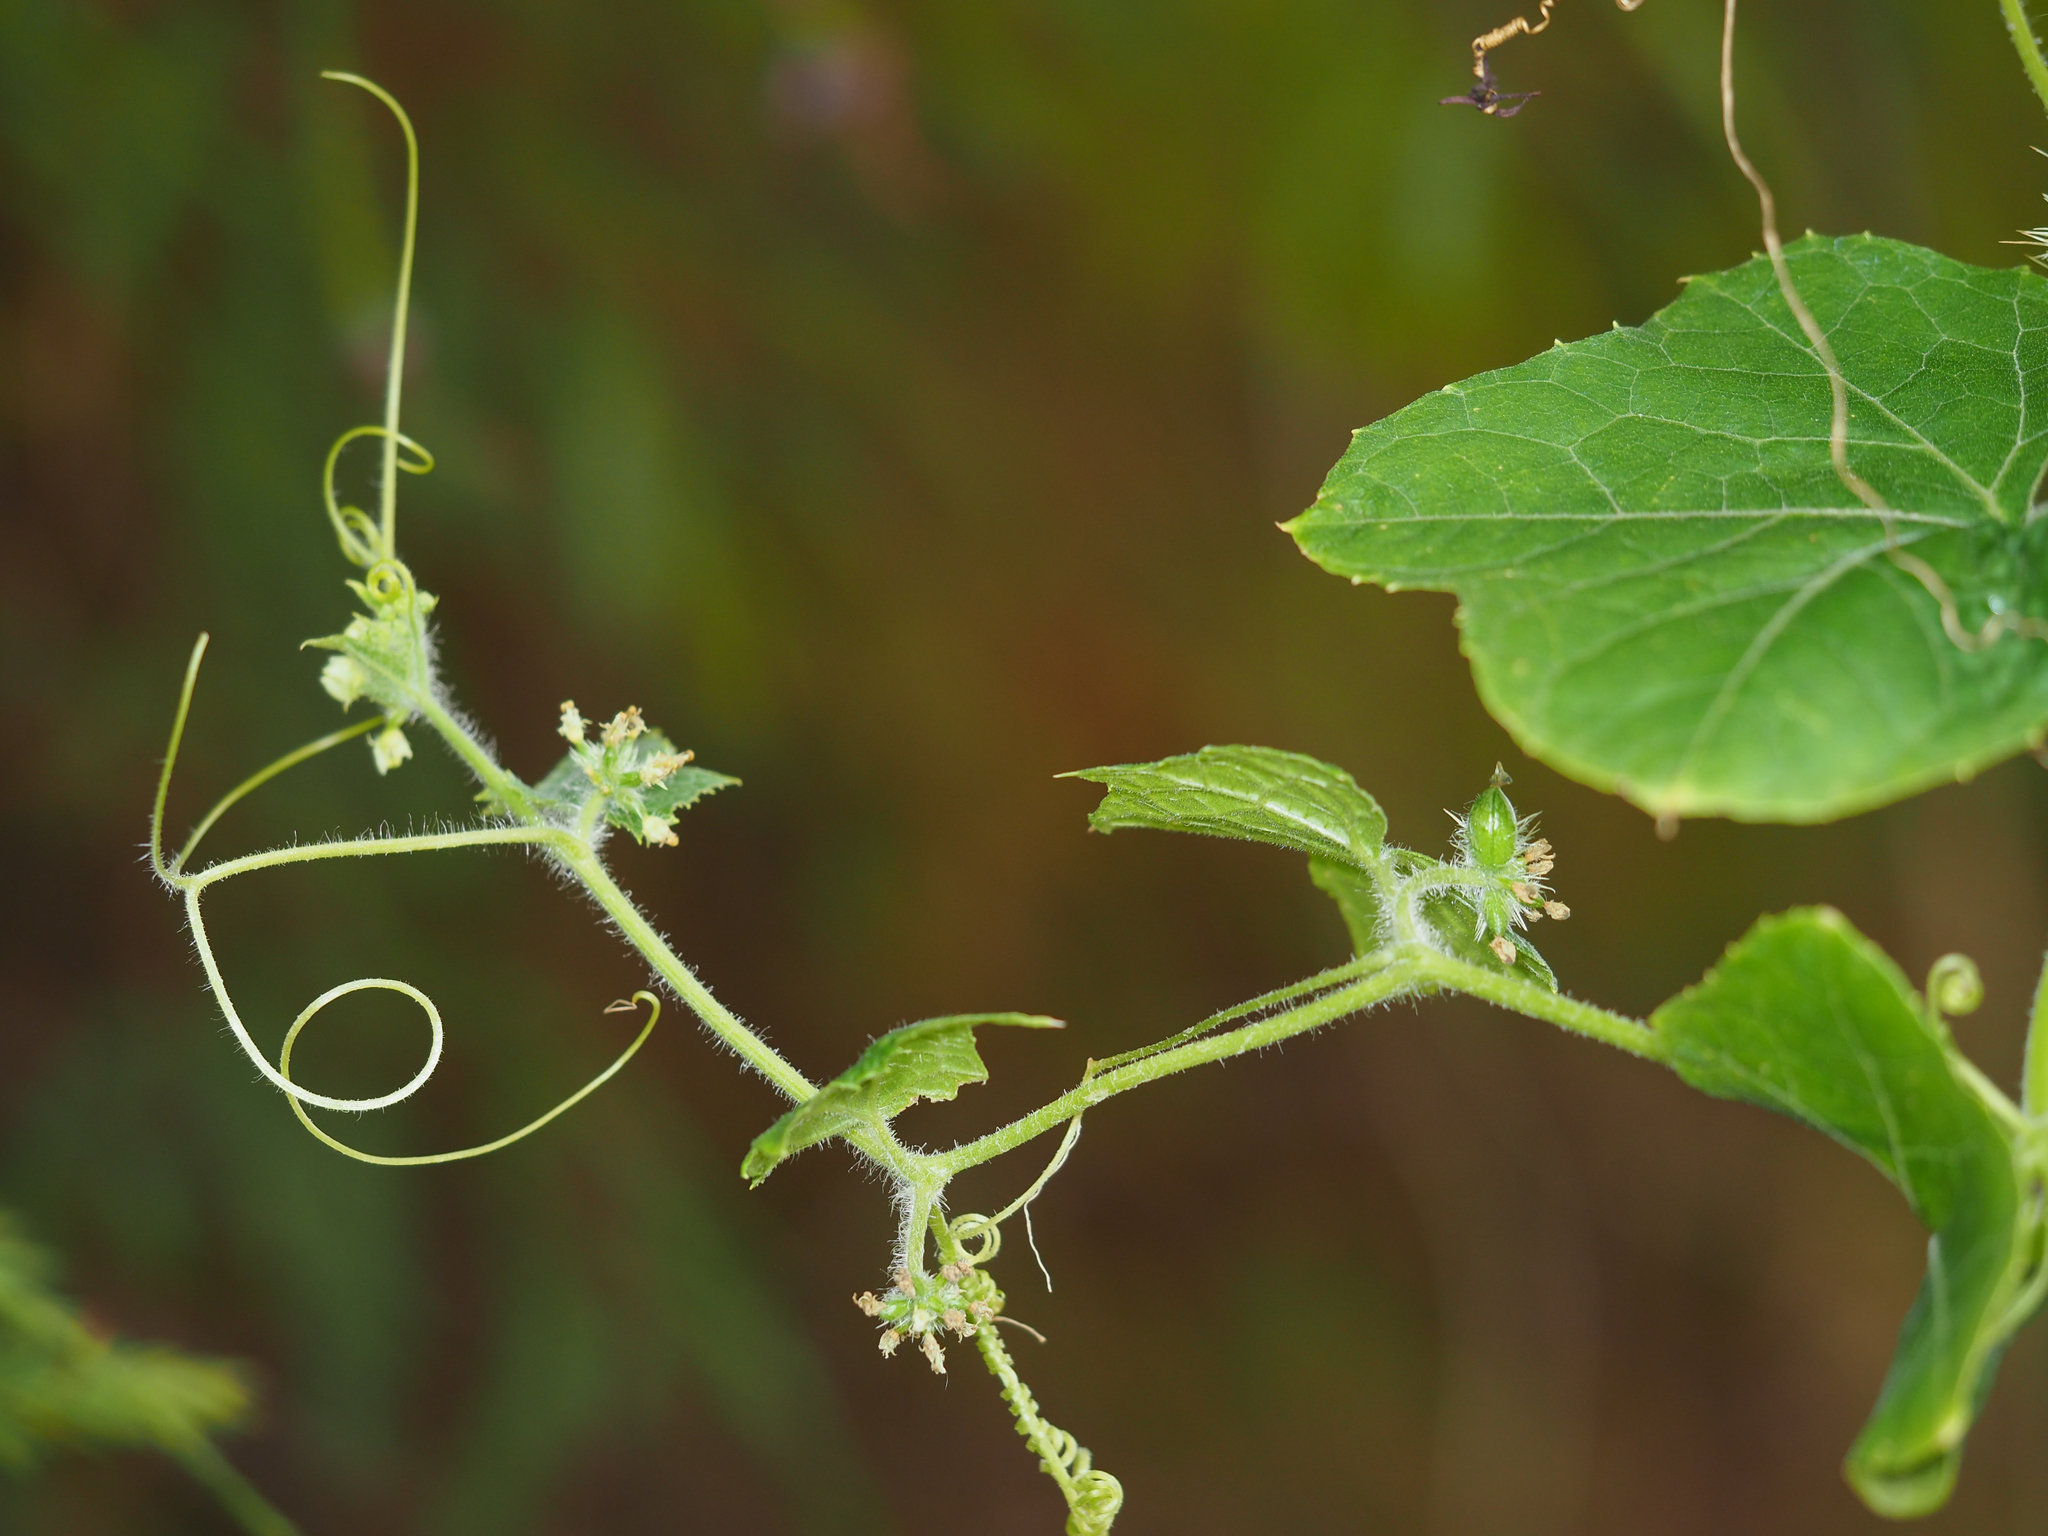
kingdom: Plantae
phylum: Tracheophyta
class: Magnoliopsida
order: Cucurbitales
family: Cucurbitaceae
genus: Sicyos
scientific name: Sicyos angulatus
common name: Angled burr cucumber
